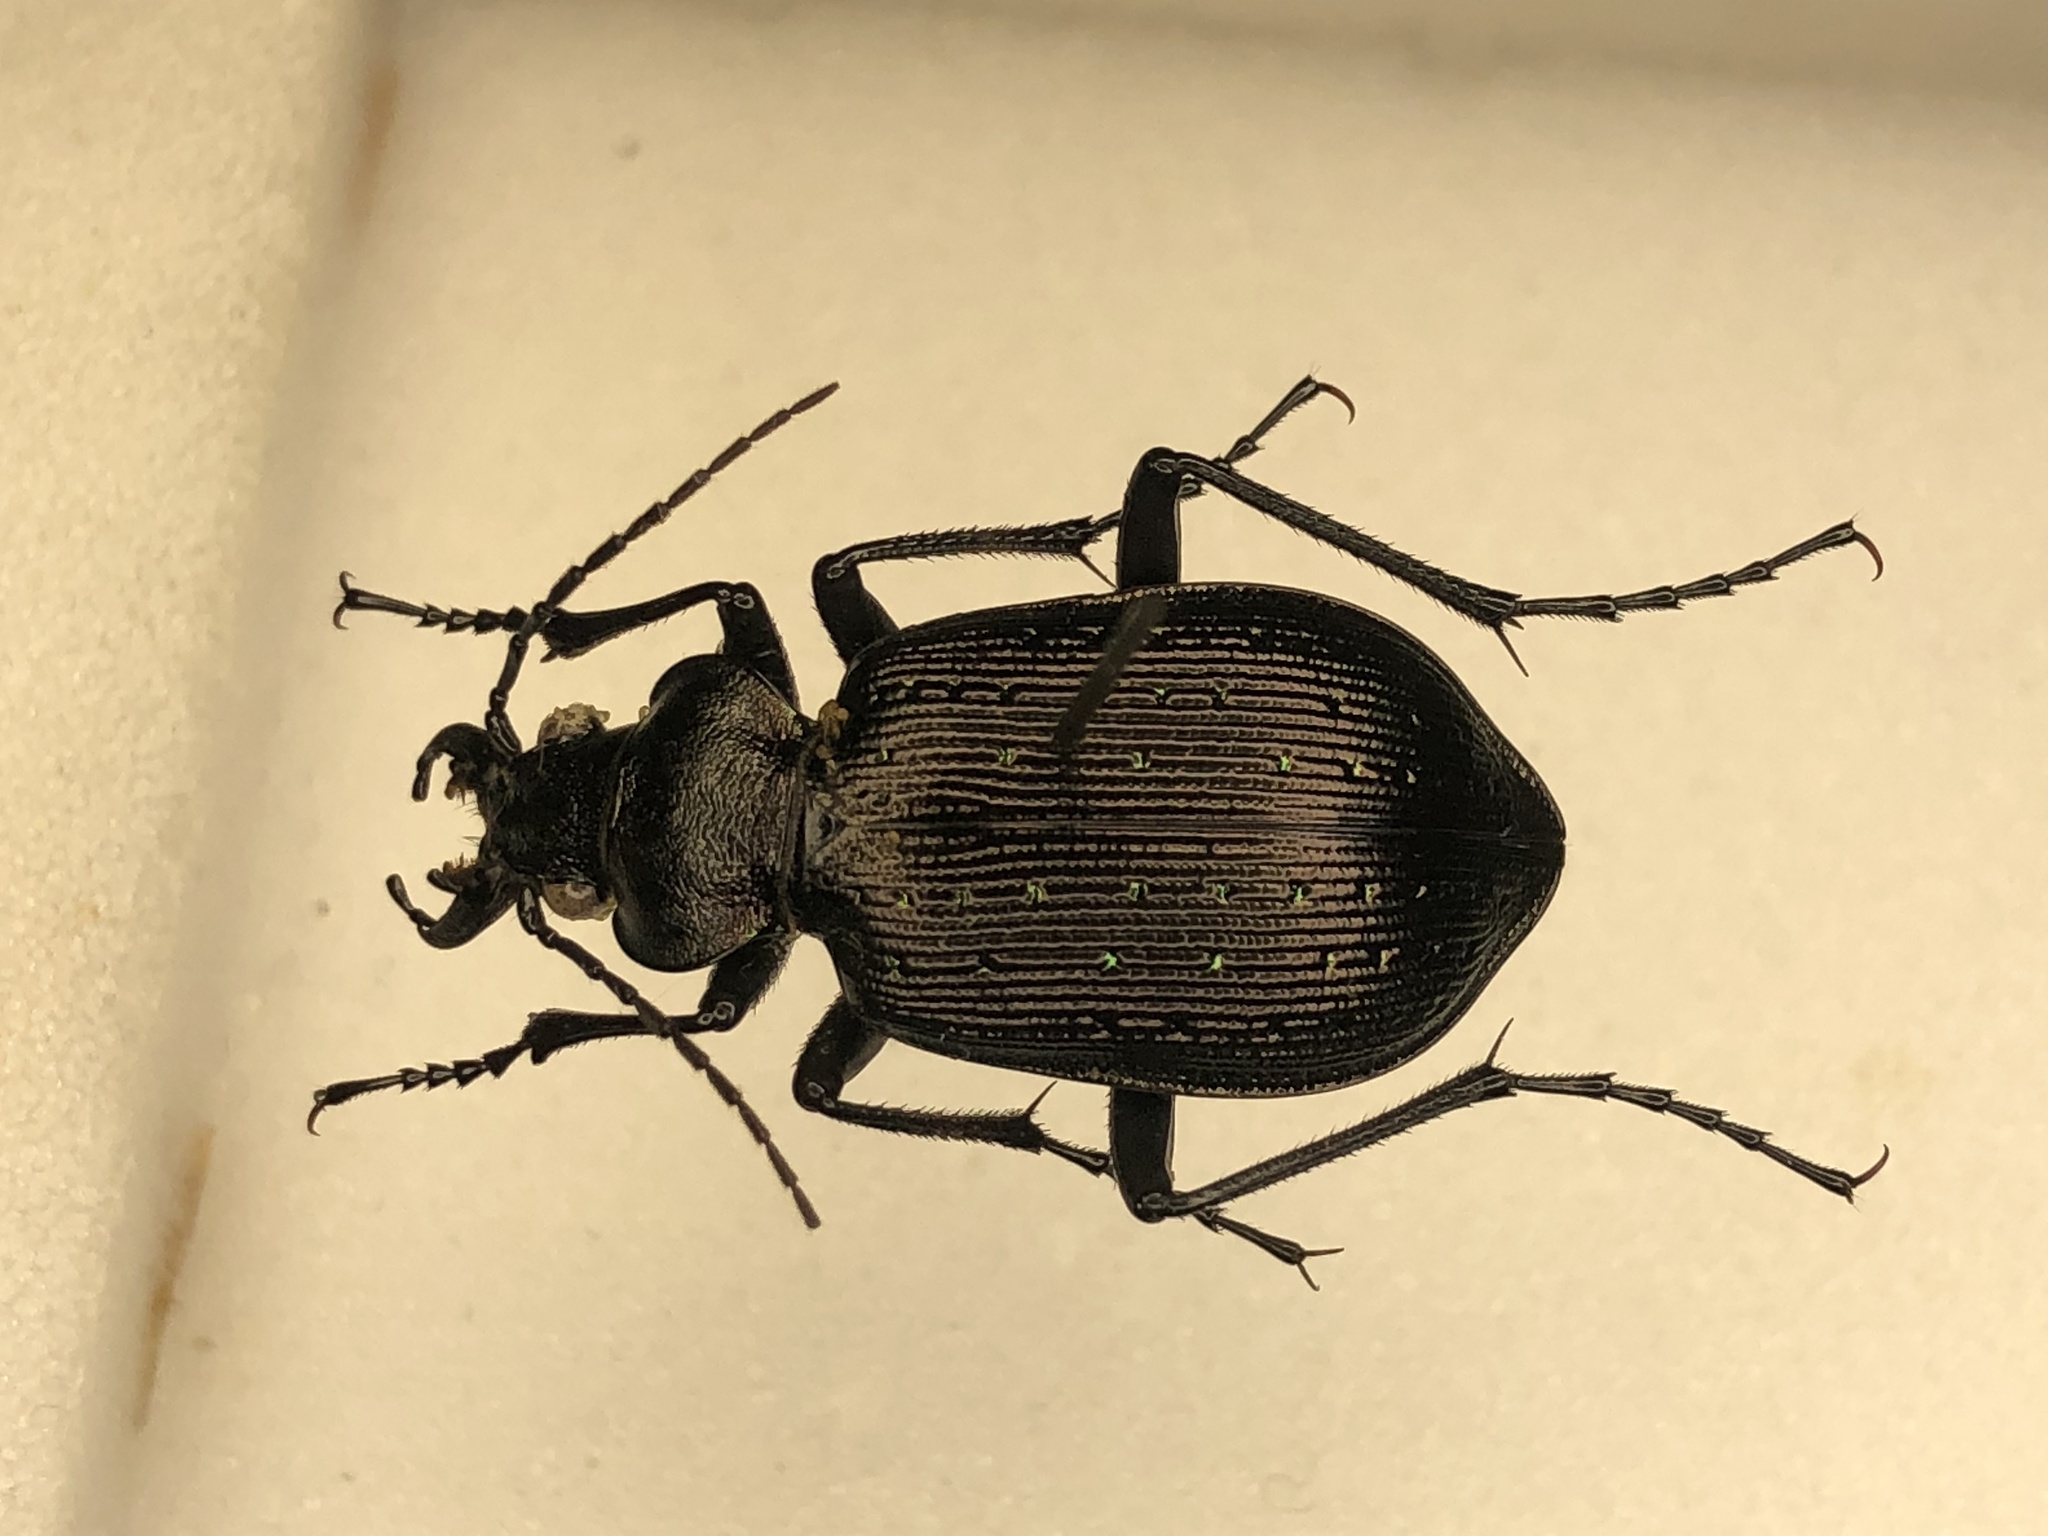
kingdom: Animalia
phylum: Arthropoda
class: Insecta
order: Coleoptera
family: Carabidae
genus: Calosoma
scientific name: Calosoma frigidum
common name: Cold-country caterpillar hunter
